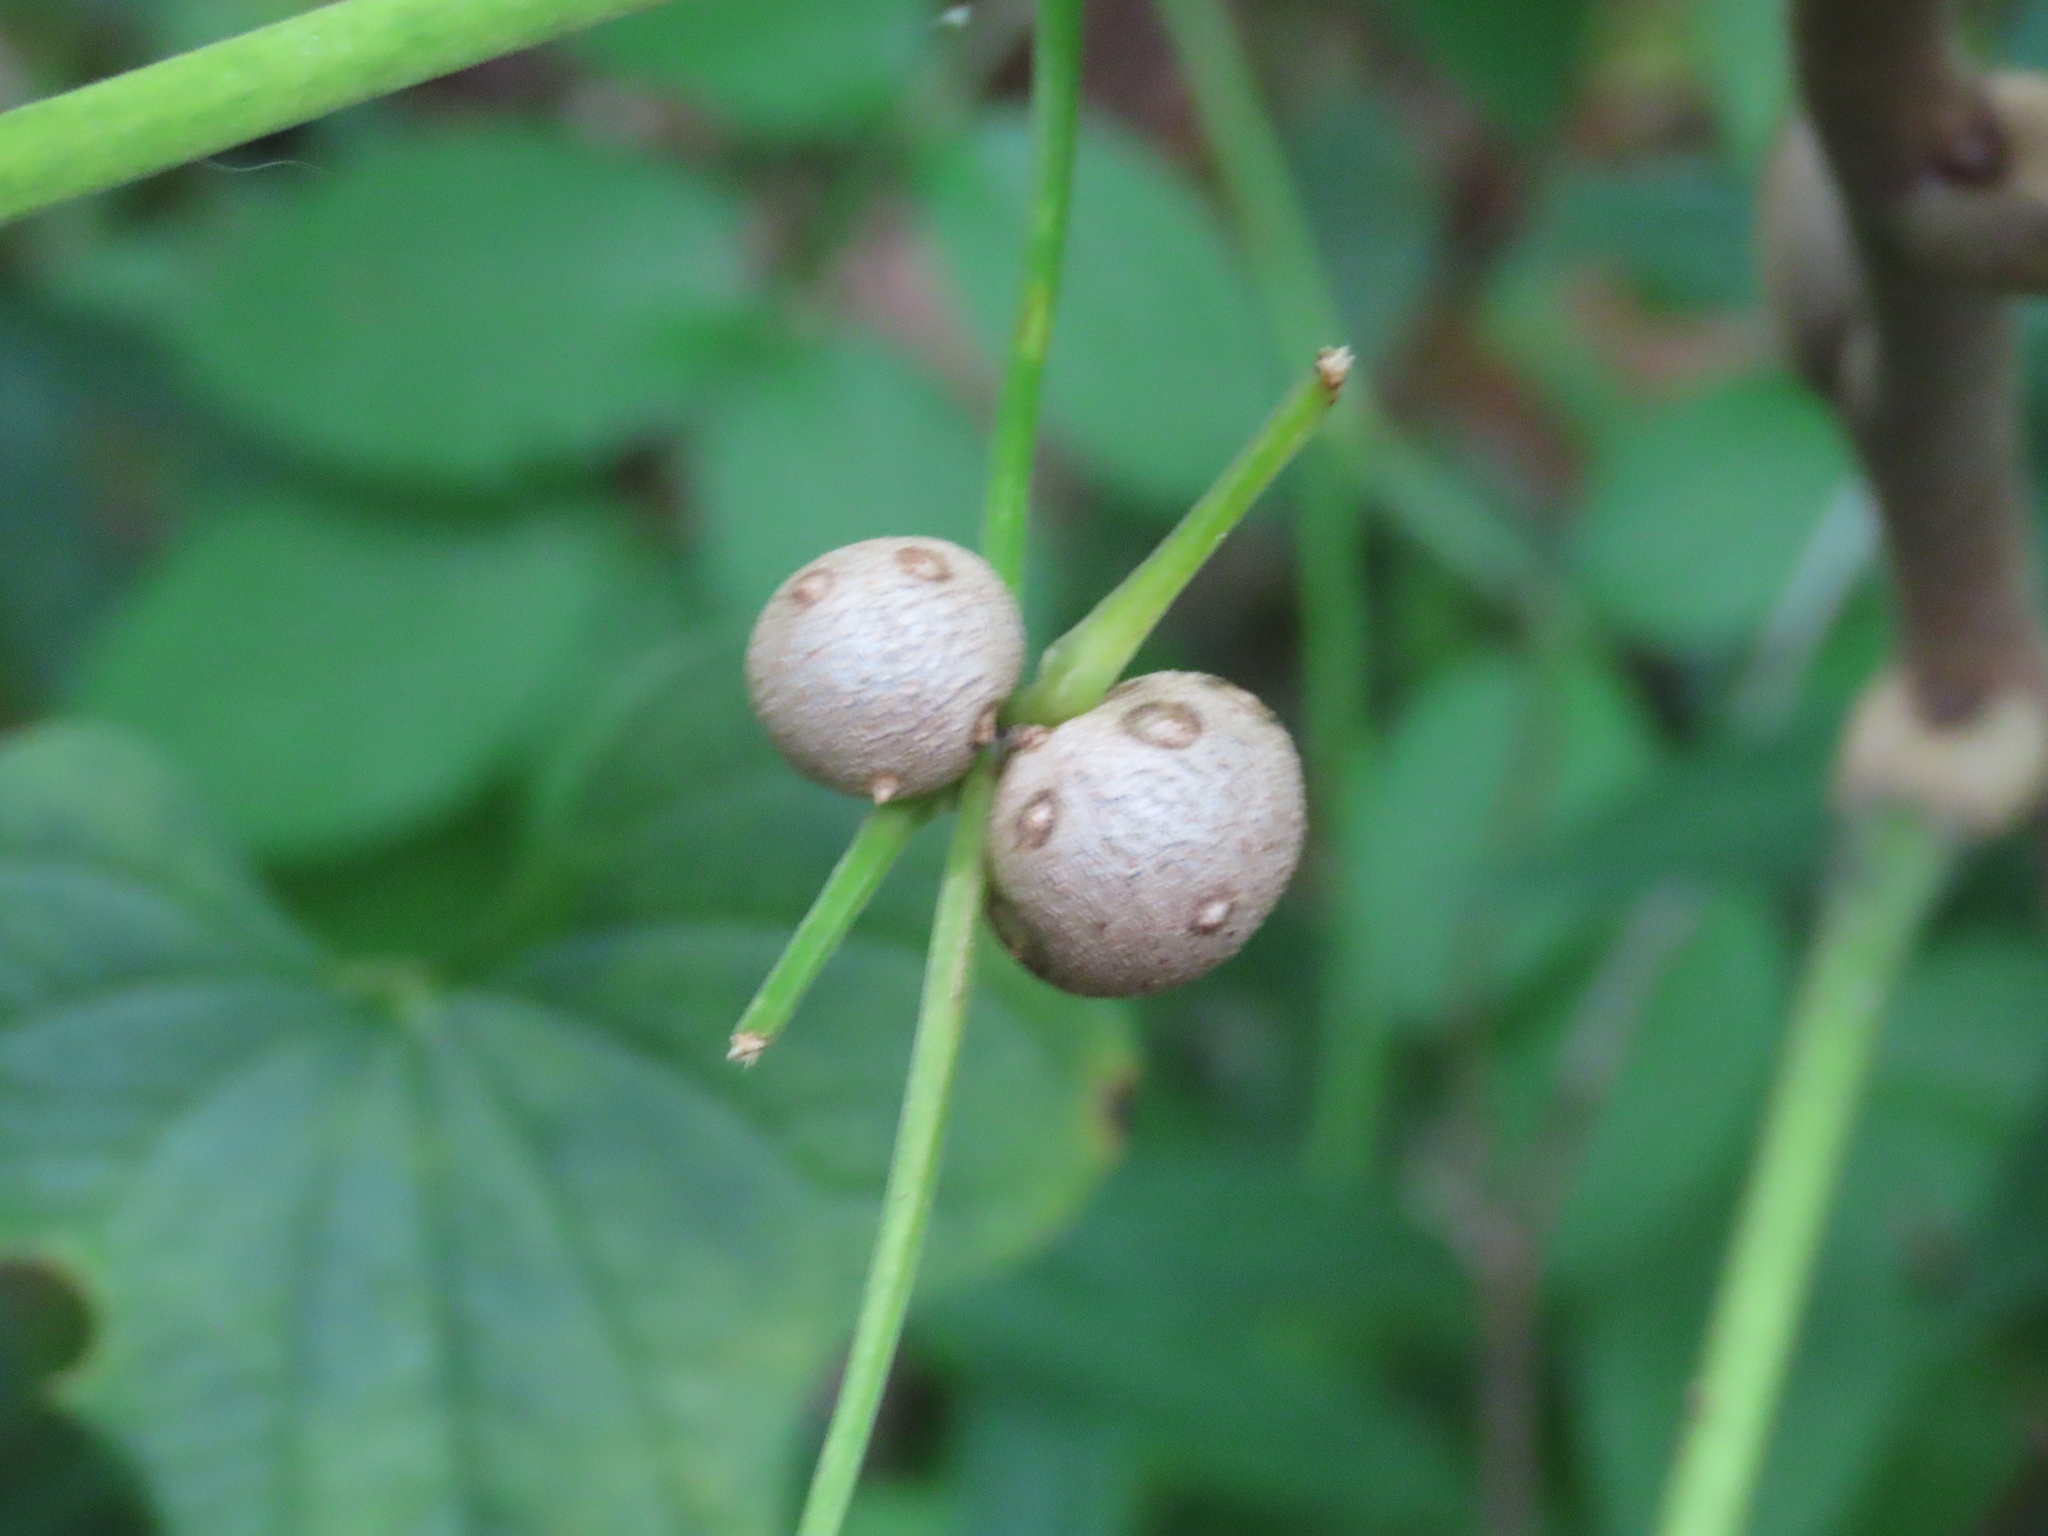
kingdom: Plantae
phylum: Tracheophyta
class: Liliopsida
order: Dioscoreales
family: Dioscoreaceae
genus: Dioscorea
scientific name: Dioscorea polystachya
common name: Chinese yam
